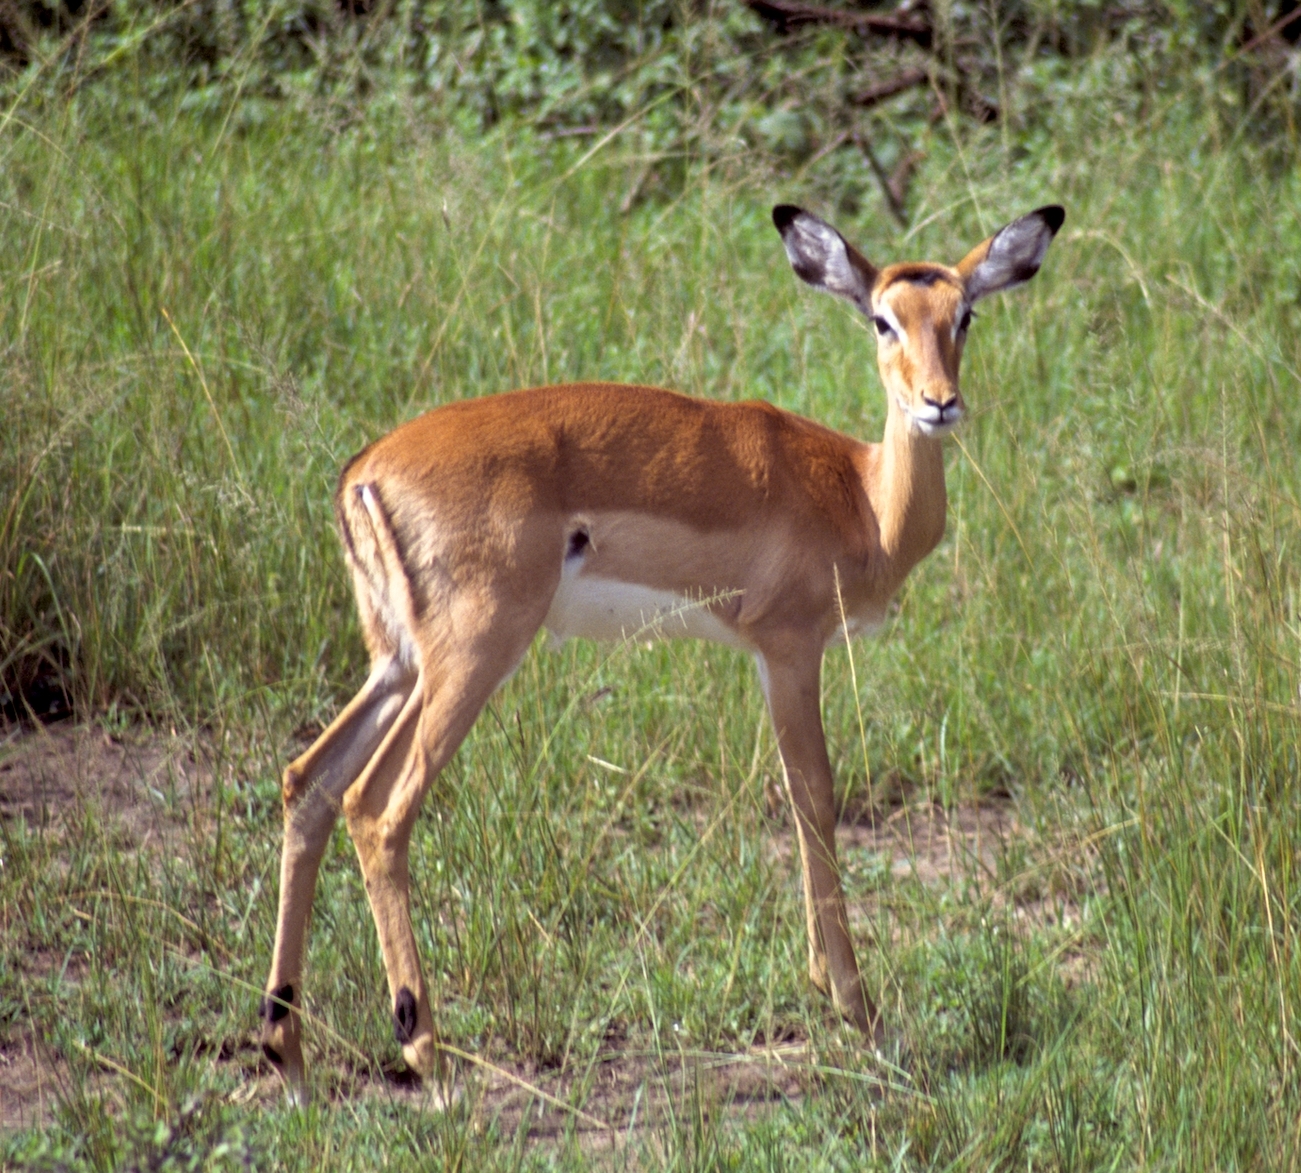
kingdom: Animalia
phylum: Chordata
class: Mammalia
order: Artiodactyla
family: Bovidae
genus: Aepyceros
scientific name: Aepyceros melampus
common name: Impala
